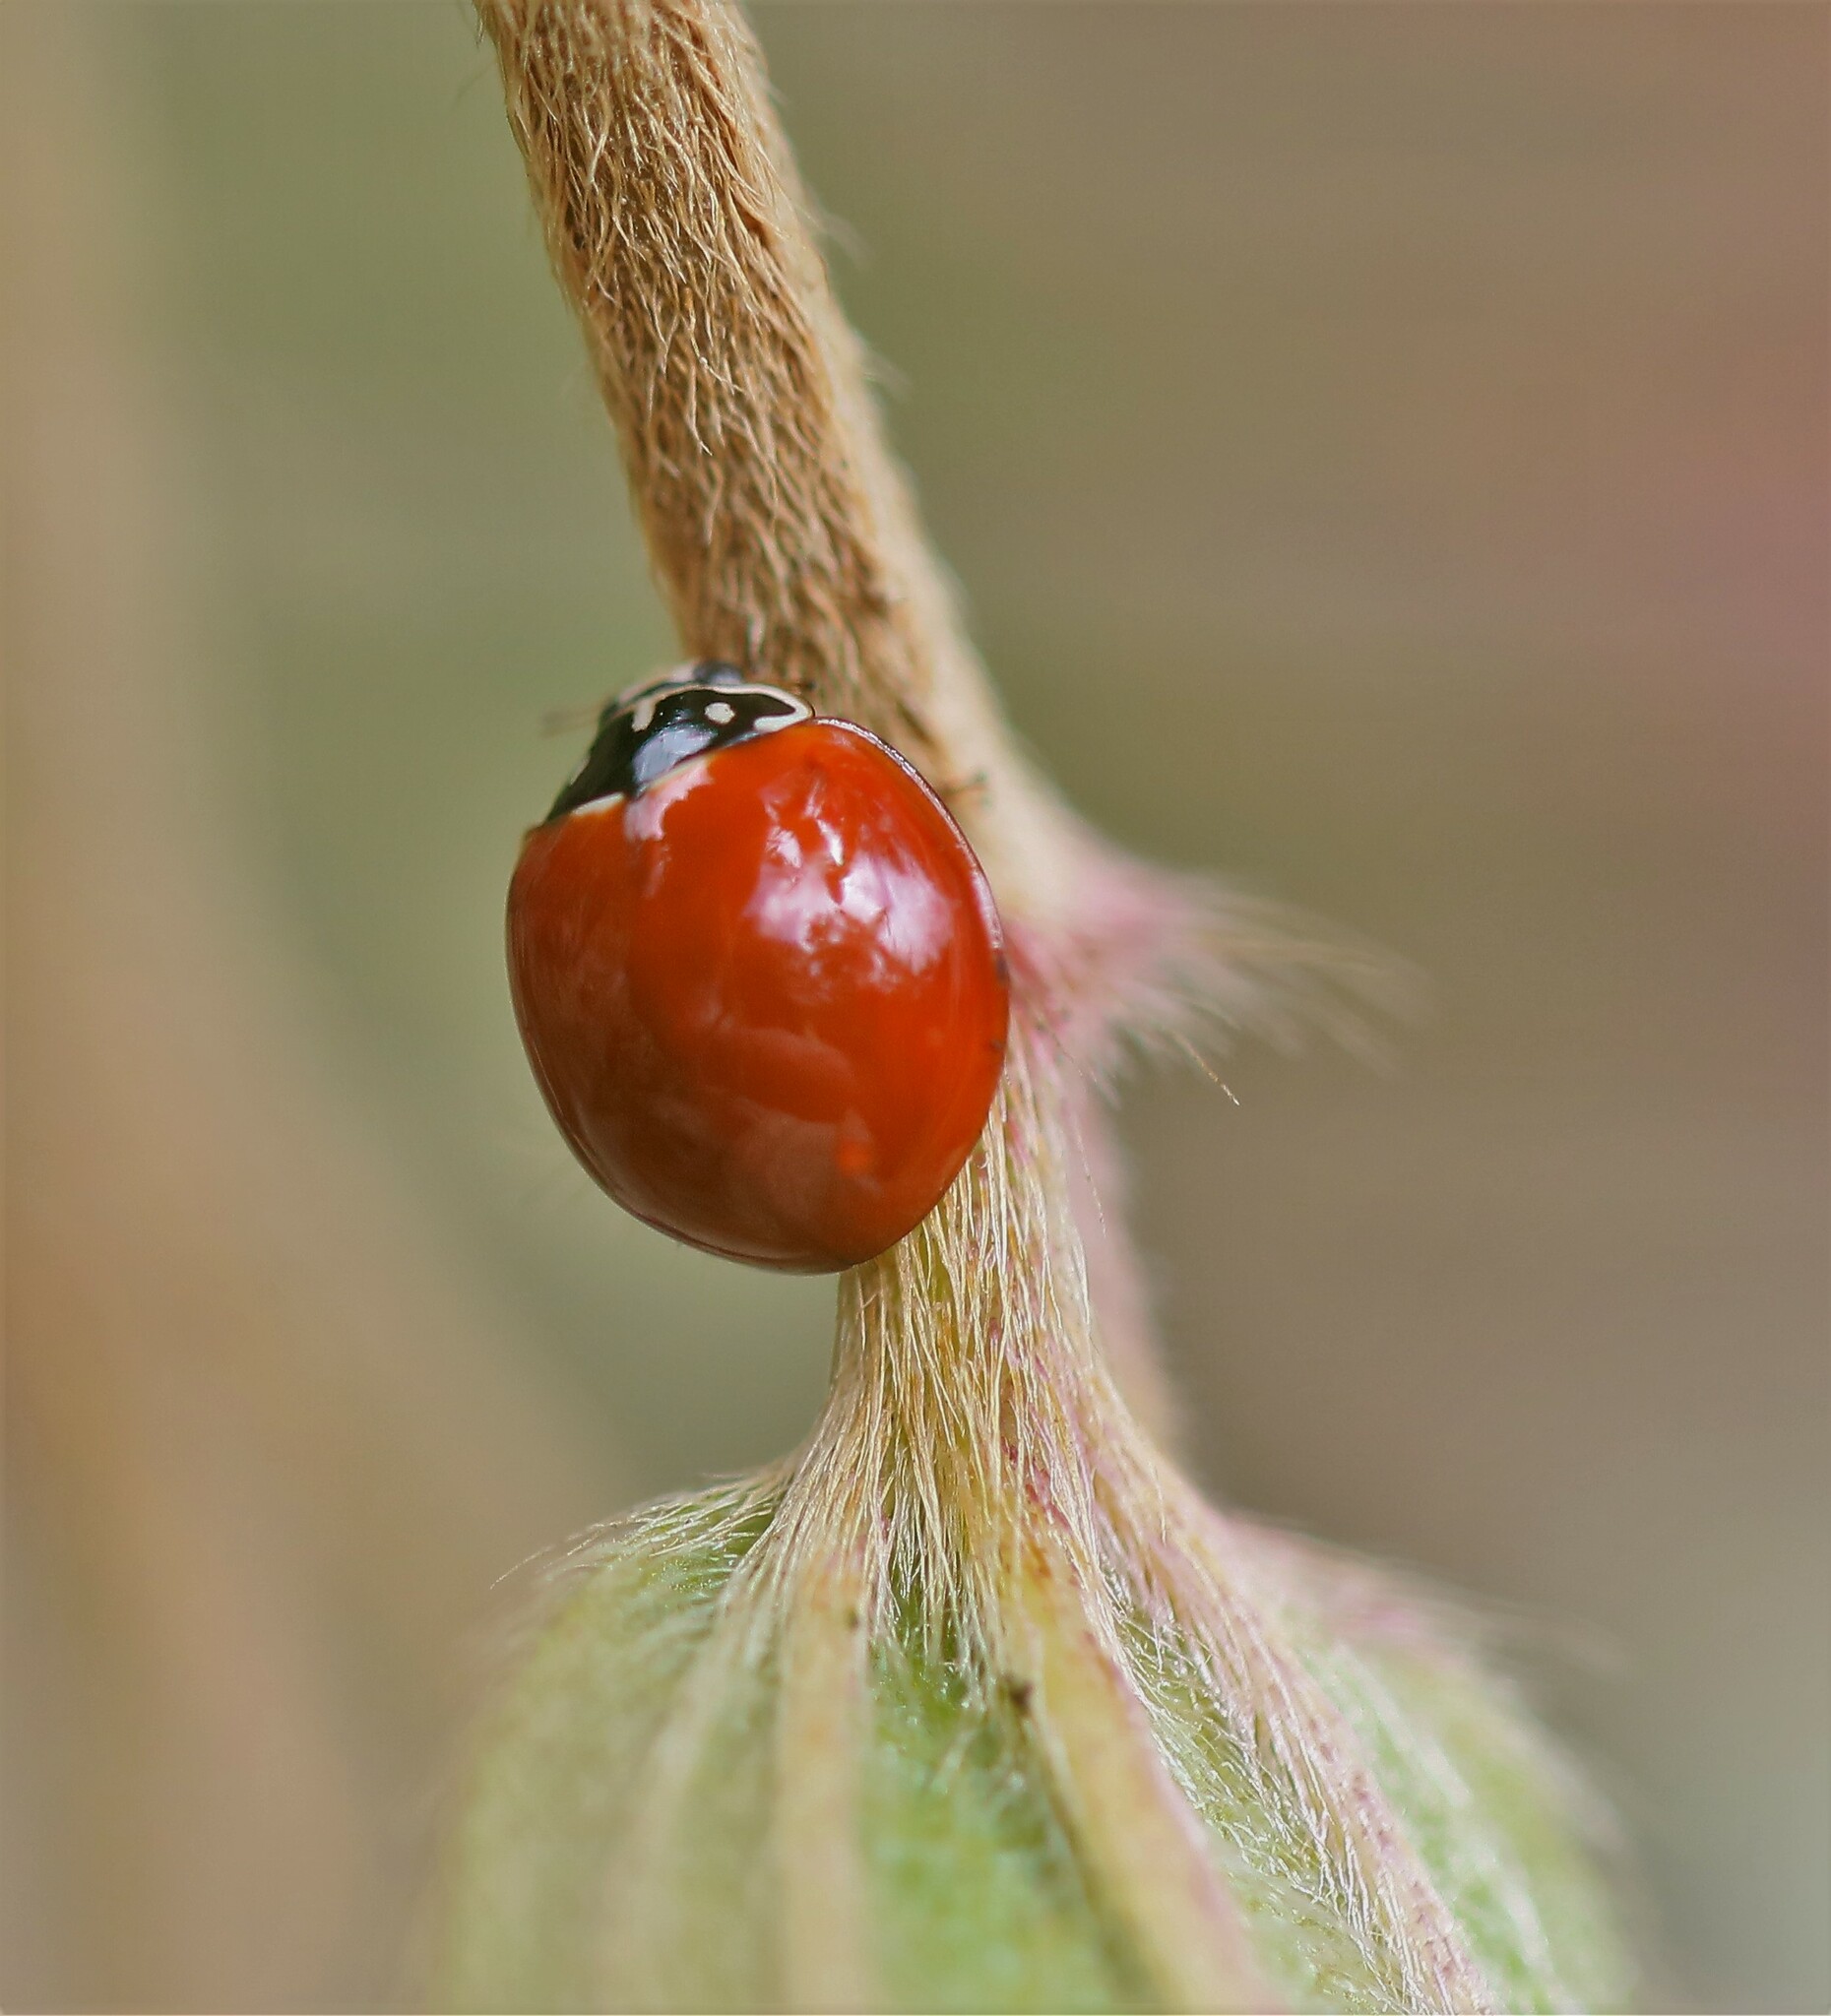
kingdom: Animalia
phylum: Arthropoda
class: Insecta
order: Coleoptera
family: Coccinellidae
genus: Cycloneda
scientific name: Cycloneda sanguinea
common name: Ladybird beetle
